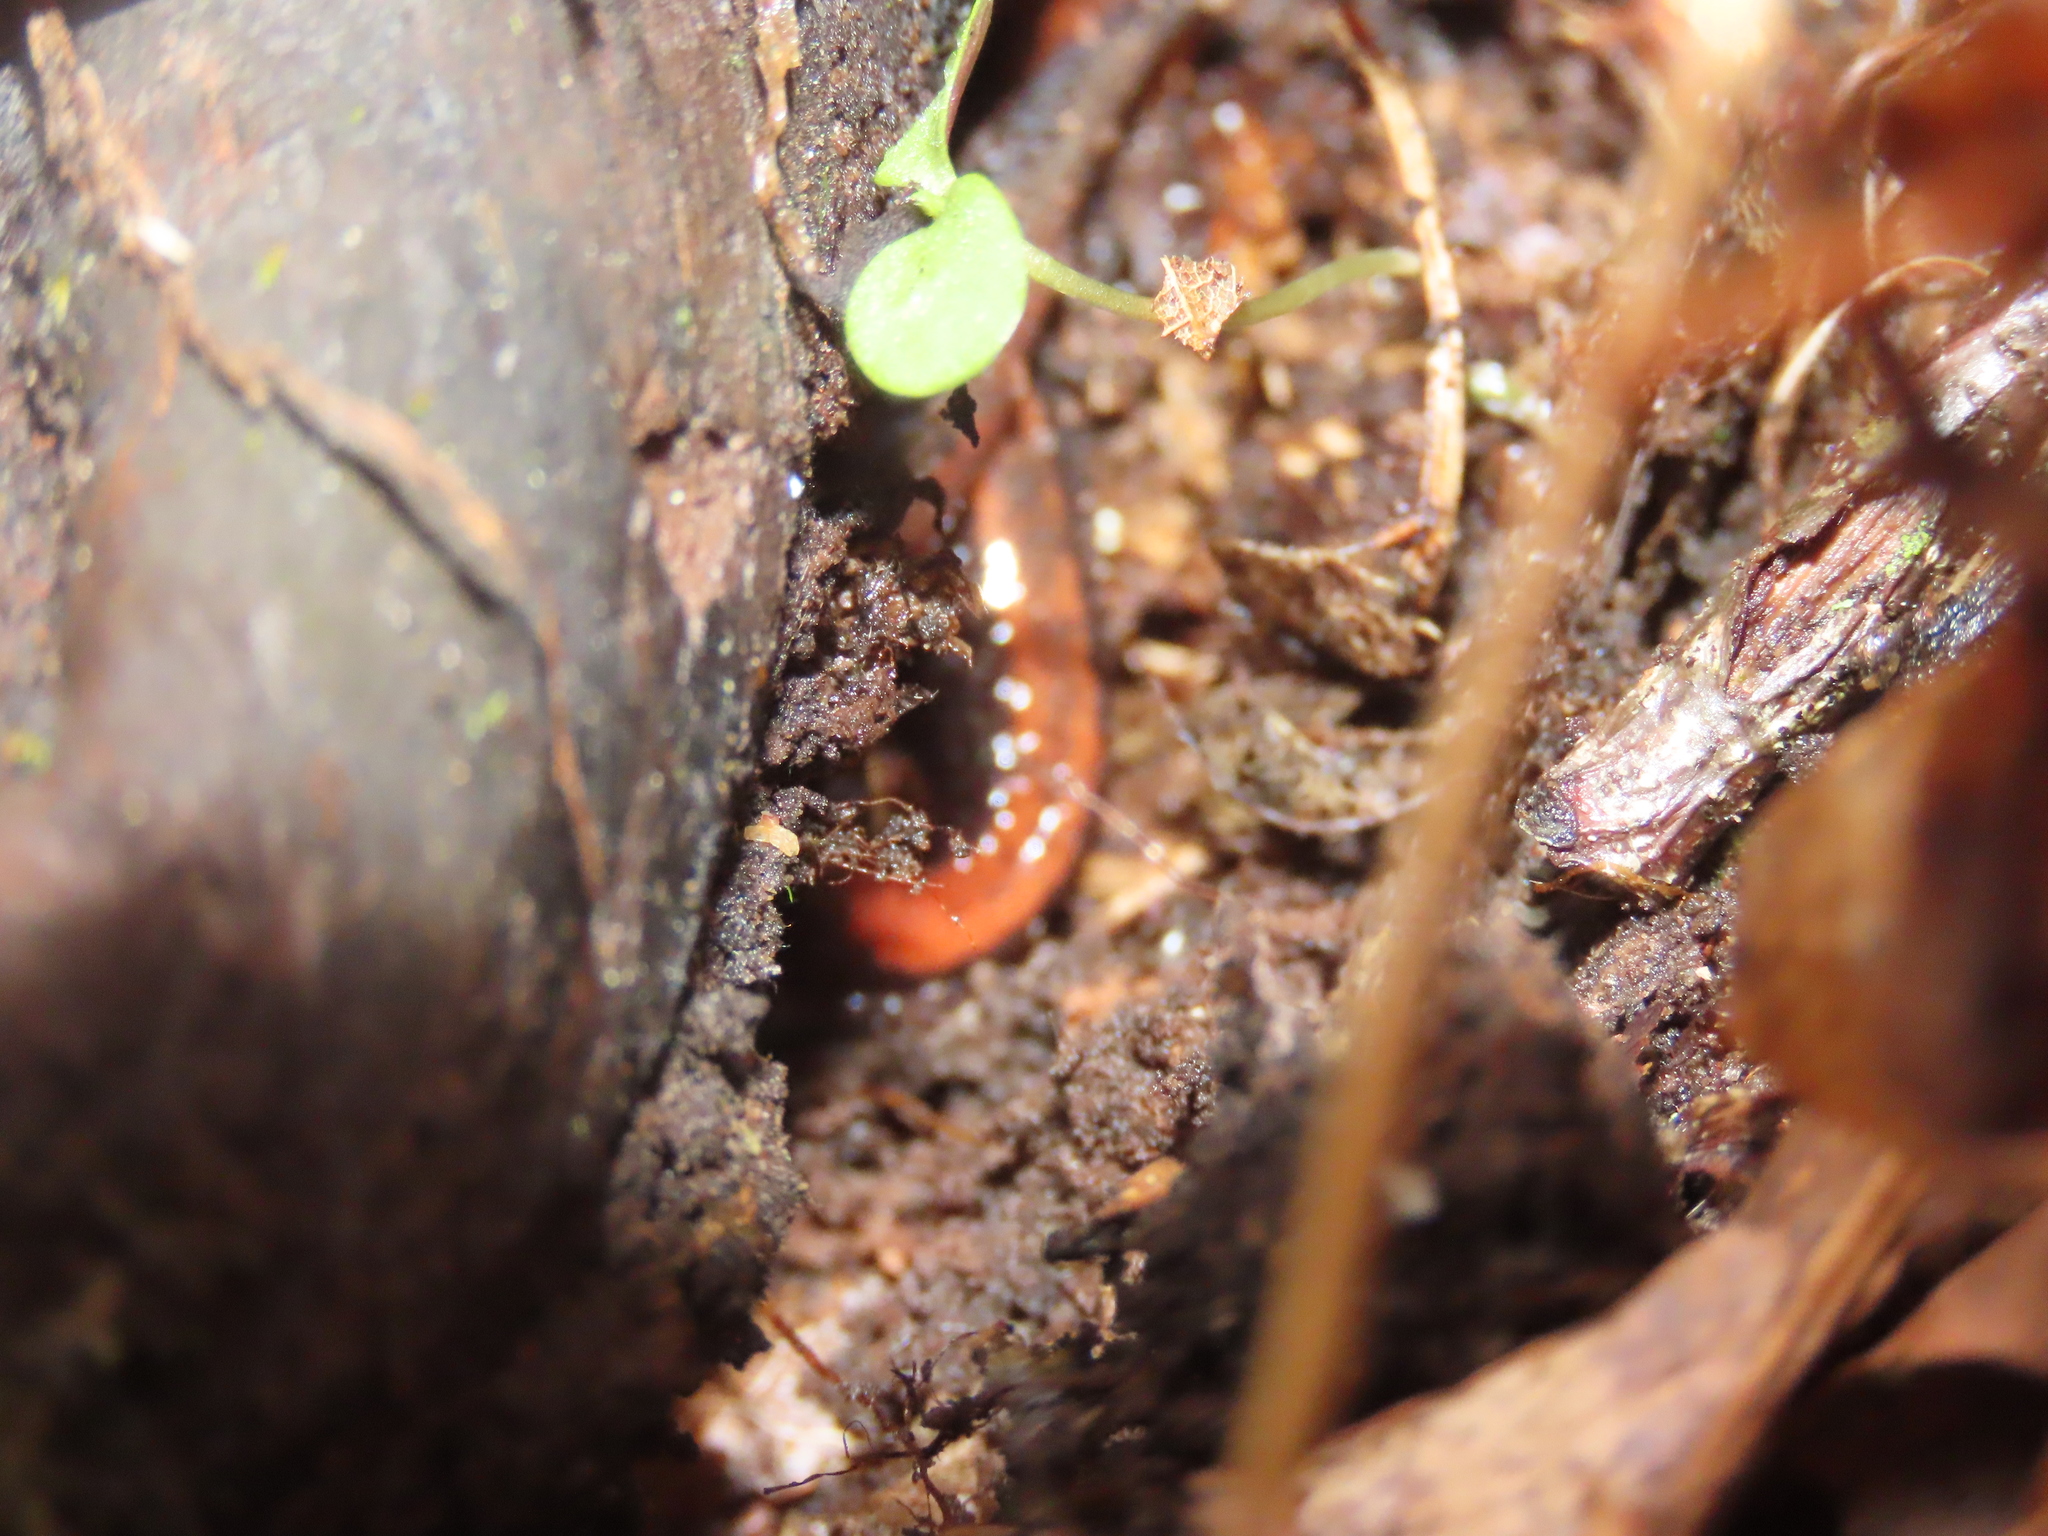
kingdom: Animalia
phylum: Chordata
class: Amphibia
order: Caudata
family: Plethodontidae
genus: Plethodon
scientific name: Plethodon cinereus
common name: Redback salamander
